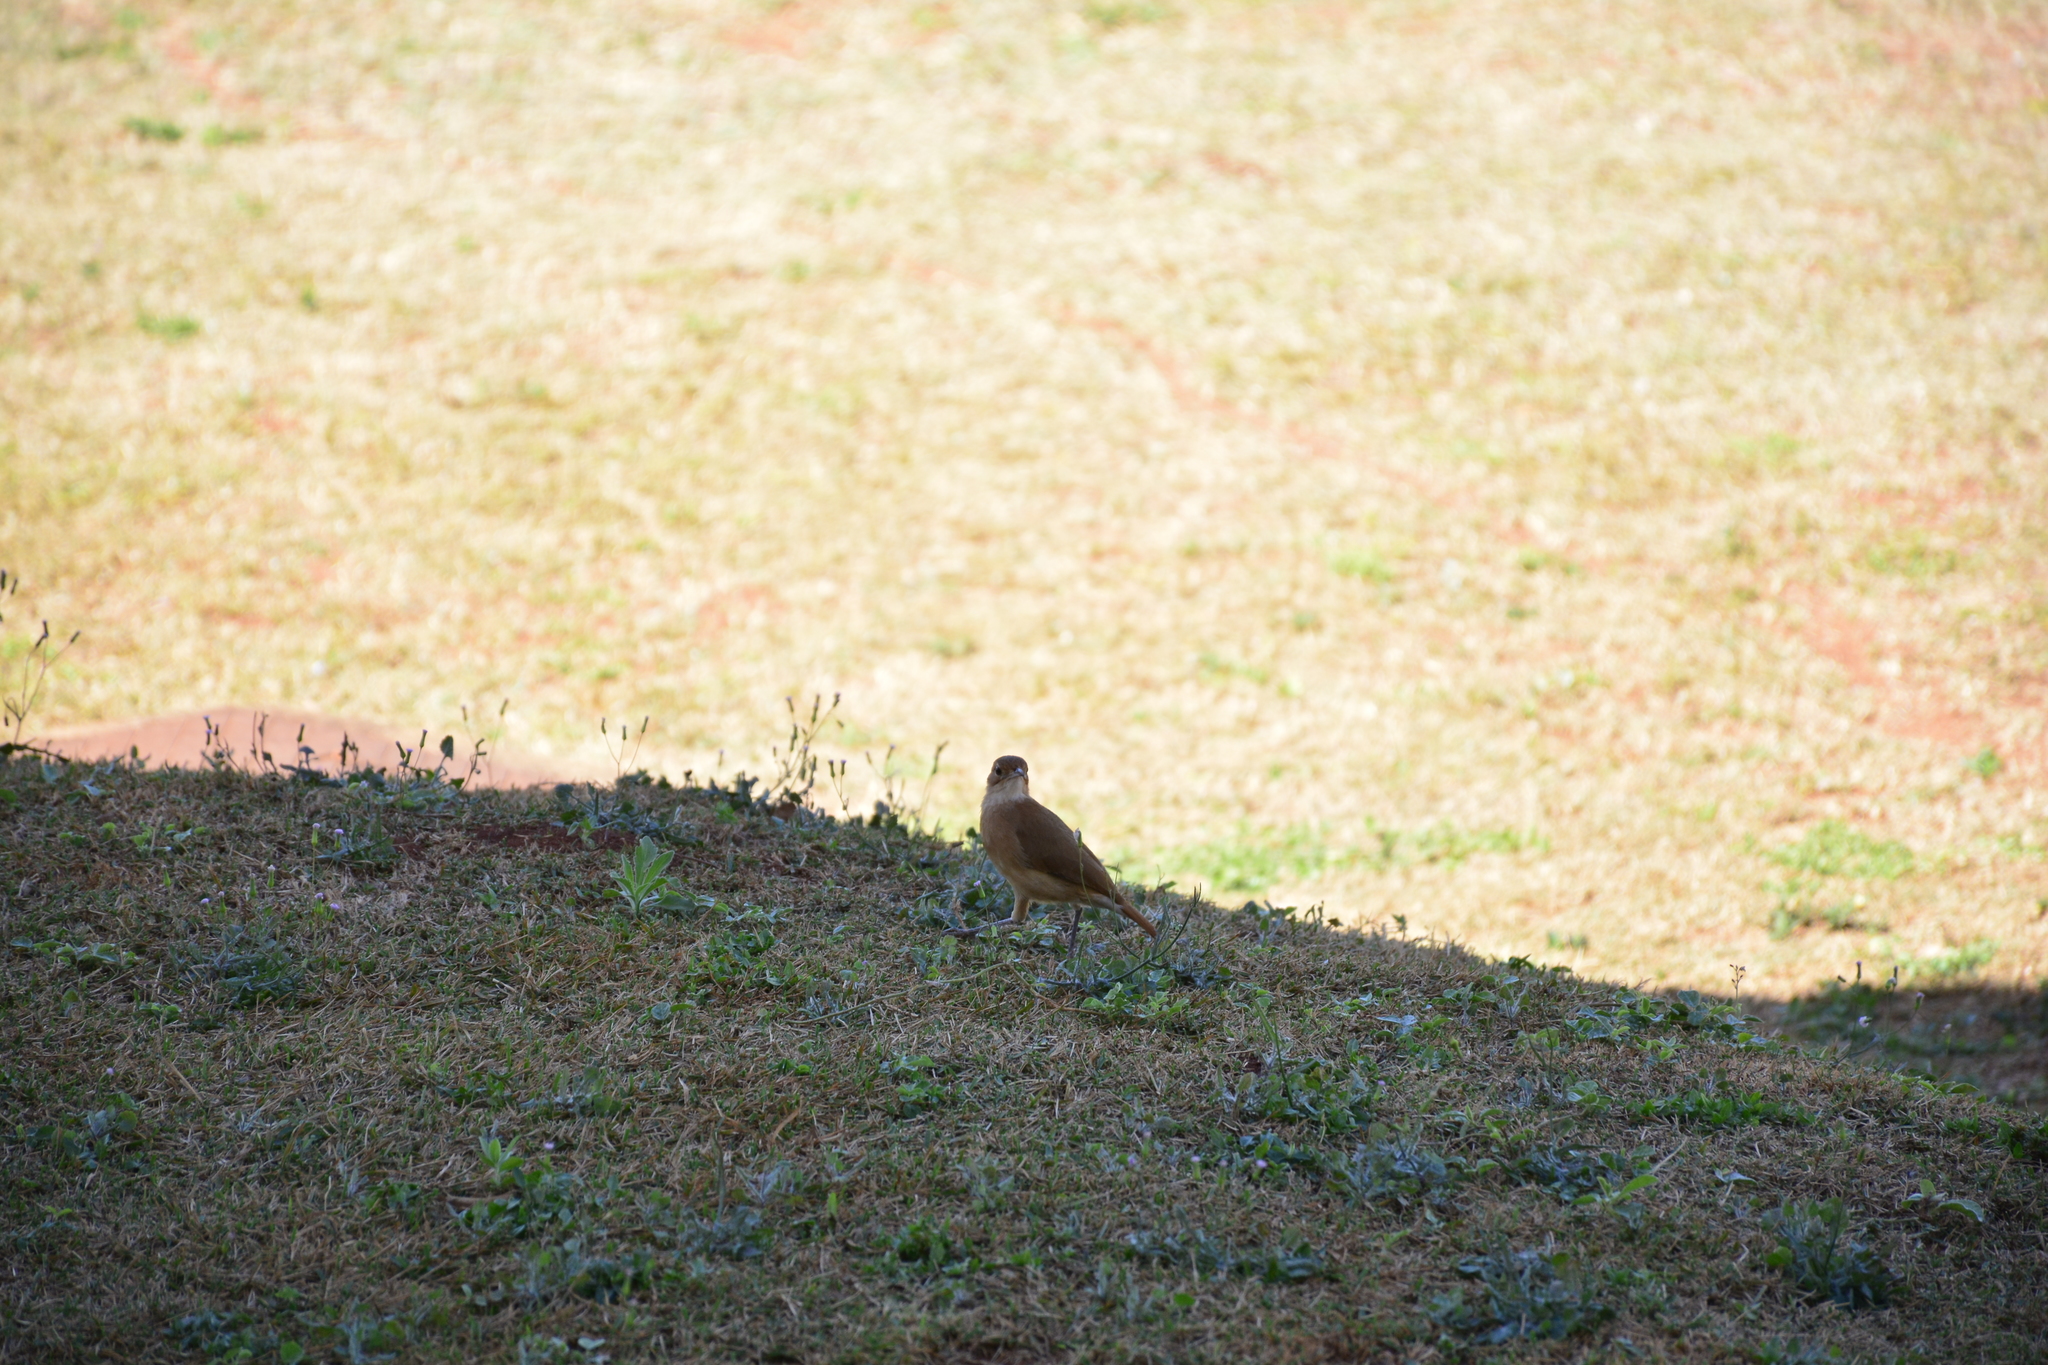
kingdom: Animalia
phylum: Chordata
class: Aves
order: Passeriformes
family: Furnariidae
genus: Furnarius
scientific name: Furnarius rufus
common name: Rufous hornero
